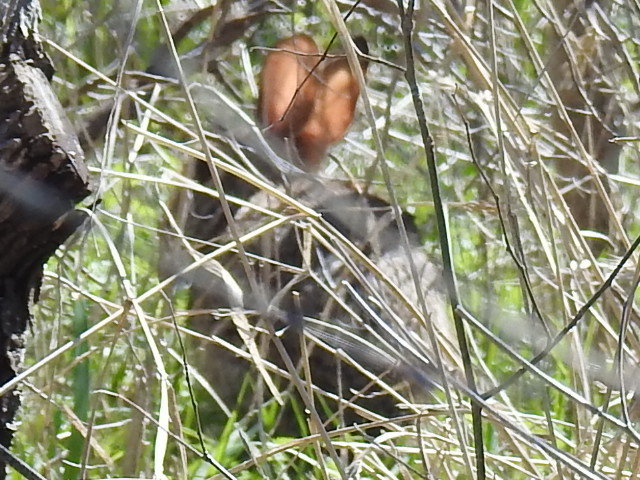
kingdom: Animalia
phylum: Chordata
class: Mammalia
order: Lagomorpha
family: Leporidae
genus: Sylvilagus
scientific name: Sylvilagus floridanus
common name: Eastern cottontail
